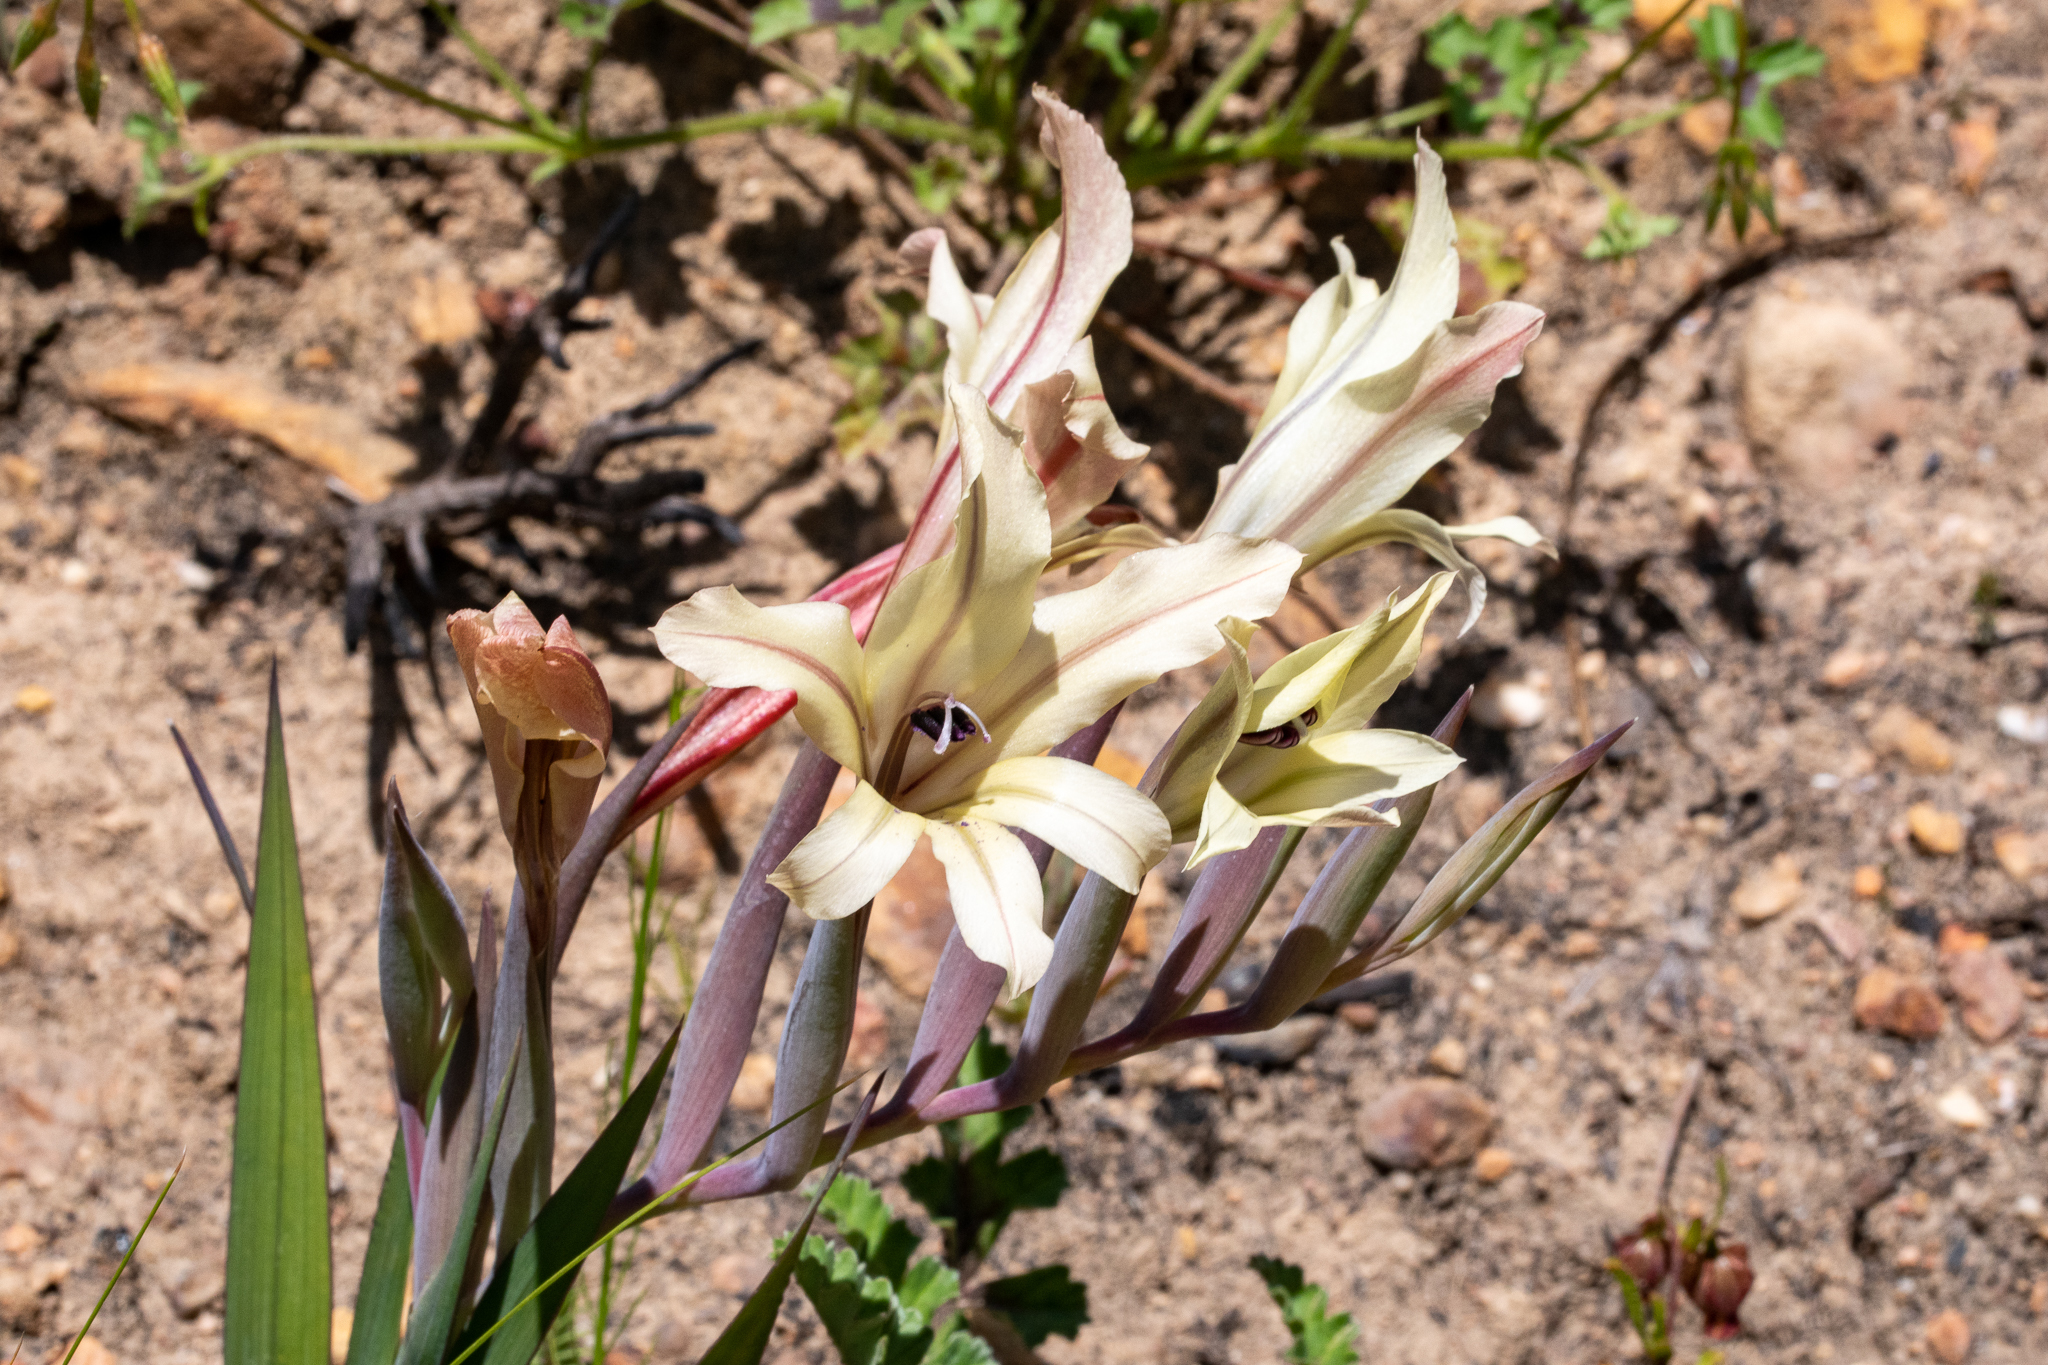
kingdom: Plantae
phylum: Tracheophyta
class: Liliopsida
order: Asparagales
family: Iridaceae
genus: Gladiolus
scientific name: Gladiolus floribundus
